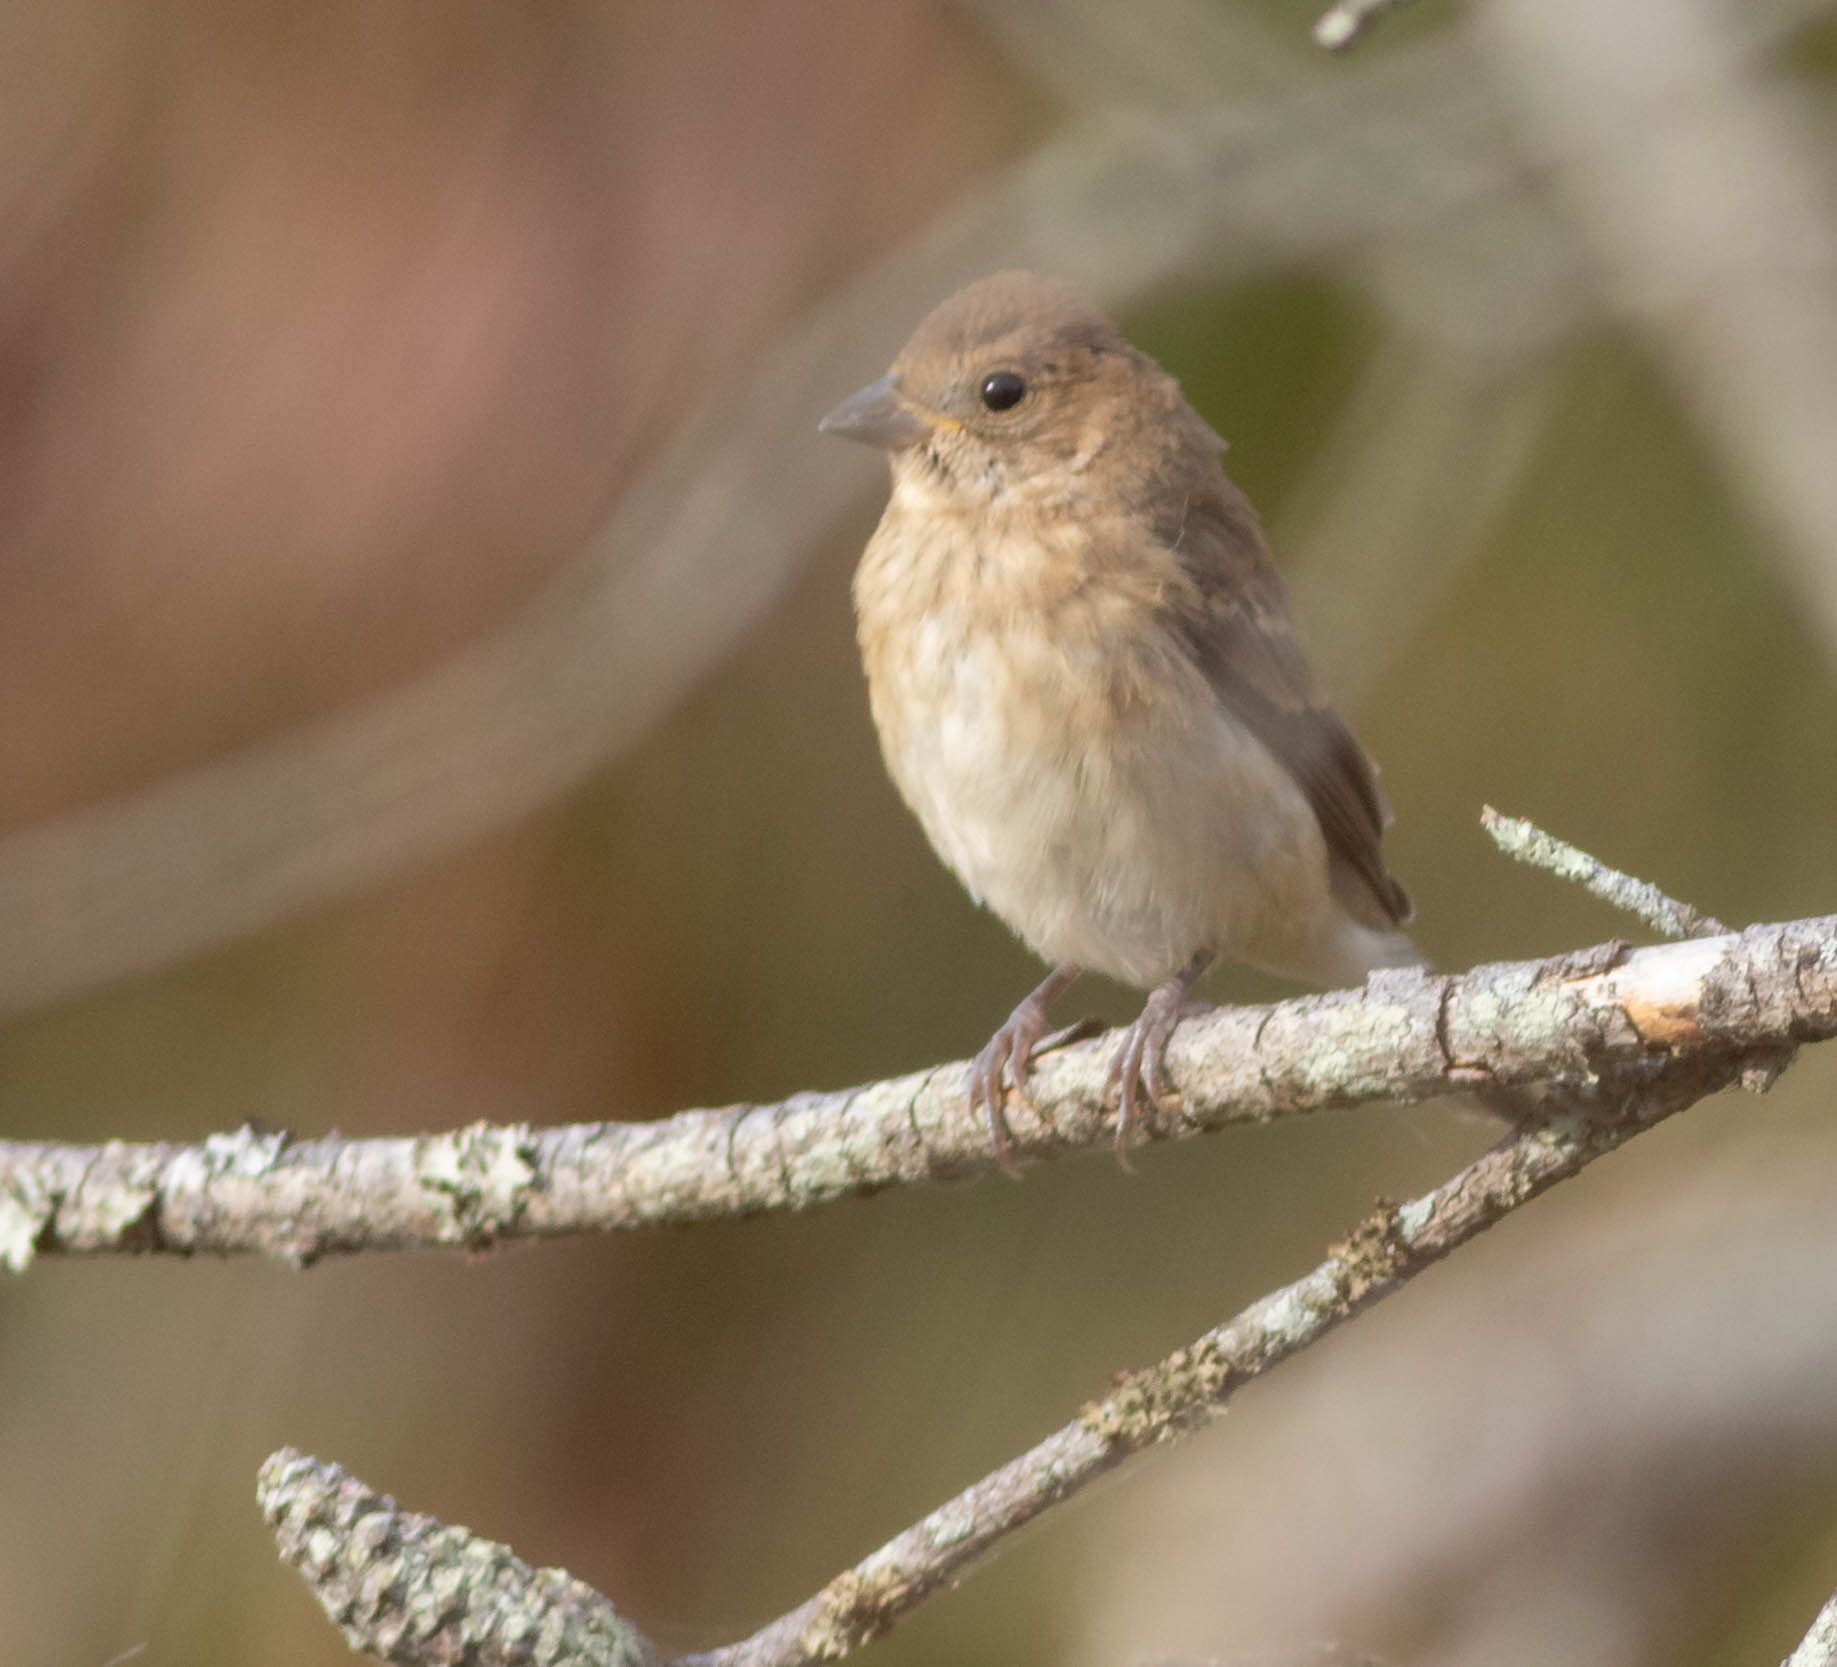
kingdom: Animalia
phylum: Chordata
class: Aves
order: Passeriformes
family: Cardinalidae
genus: Passerina
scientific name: Passerina cyanea
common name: Indigo bunting
